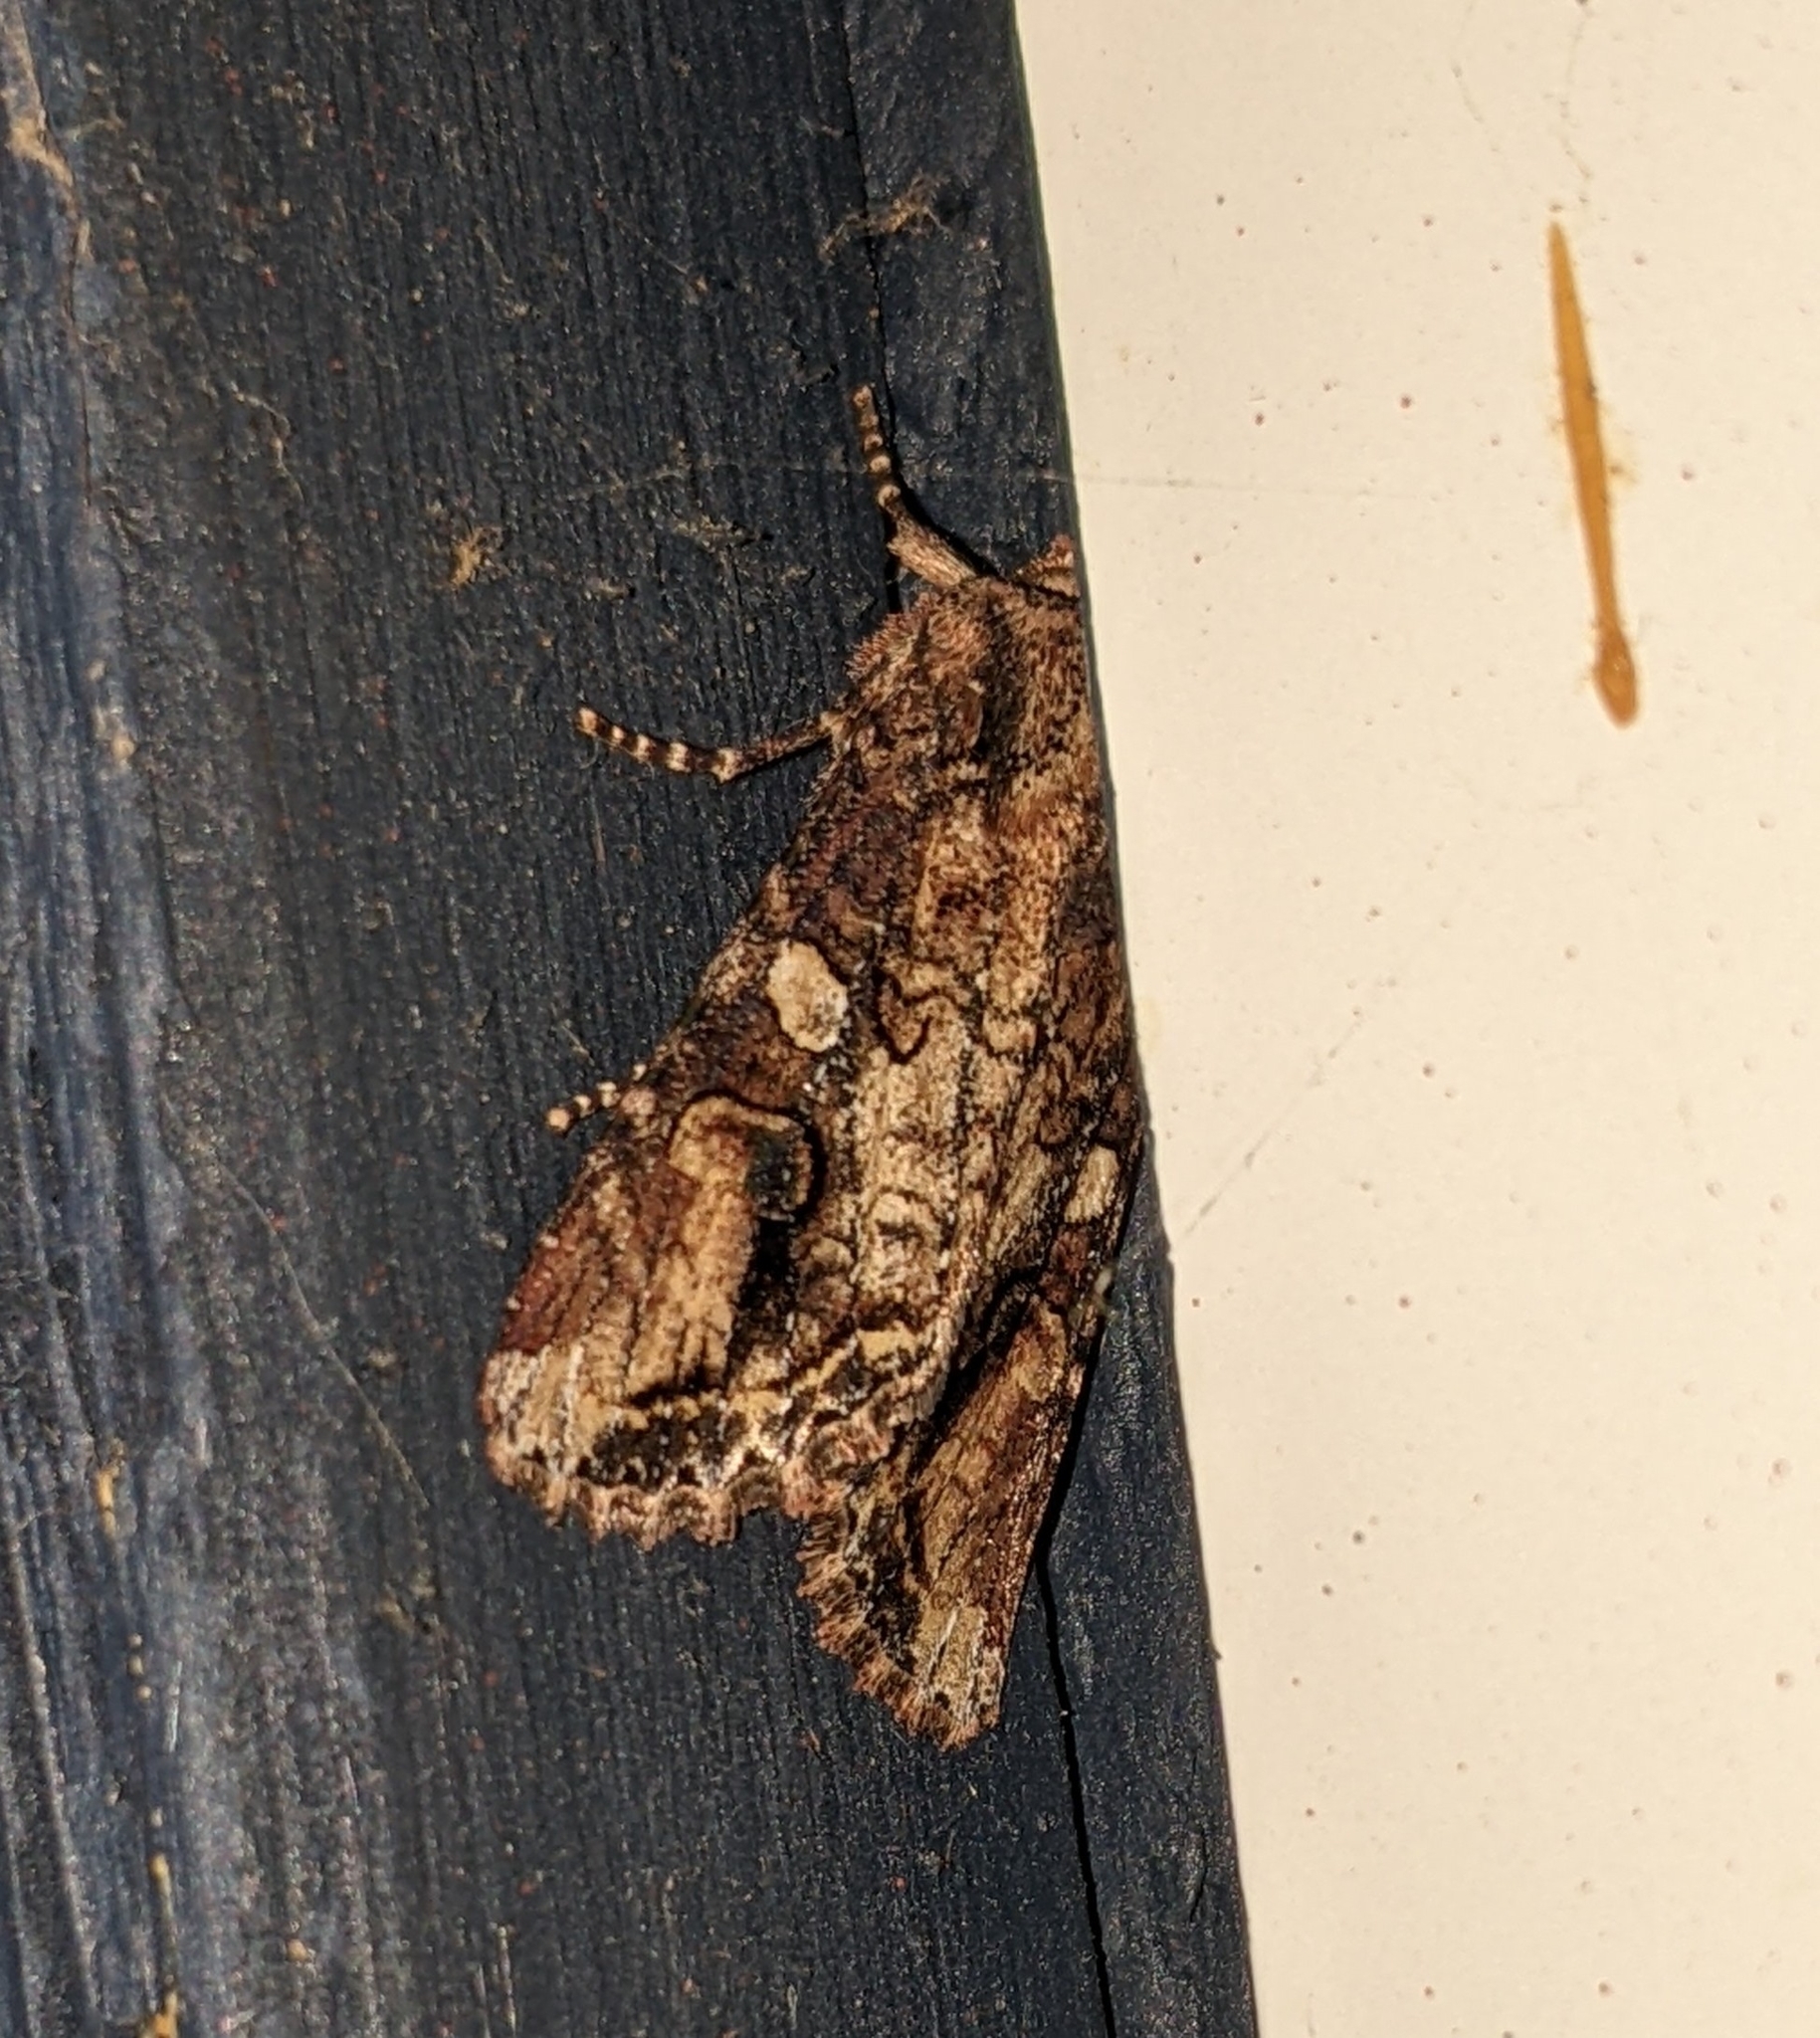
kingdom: Animalia
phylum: Arthropoda
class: Insecta
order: Lepidoptera
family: Noctuidae
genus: Egira
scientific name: Egira perlubens
